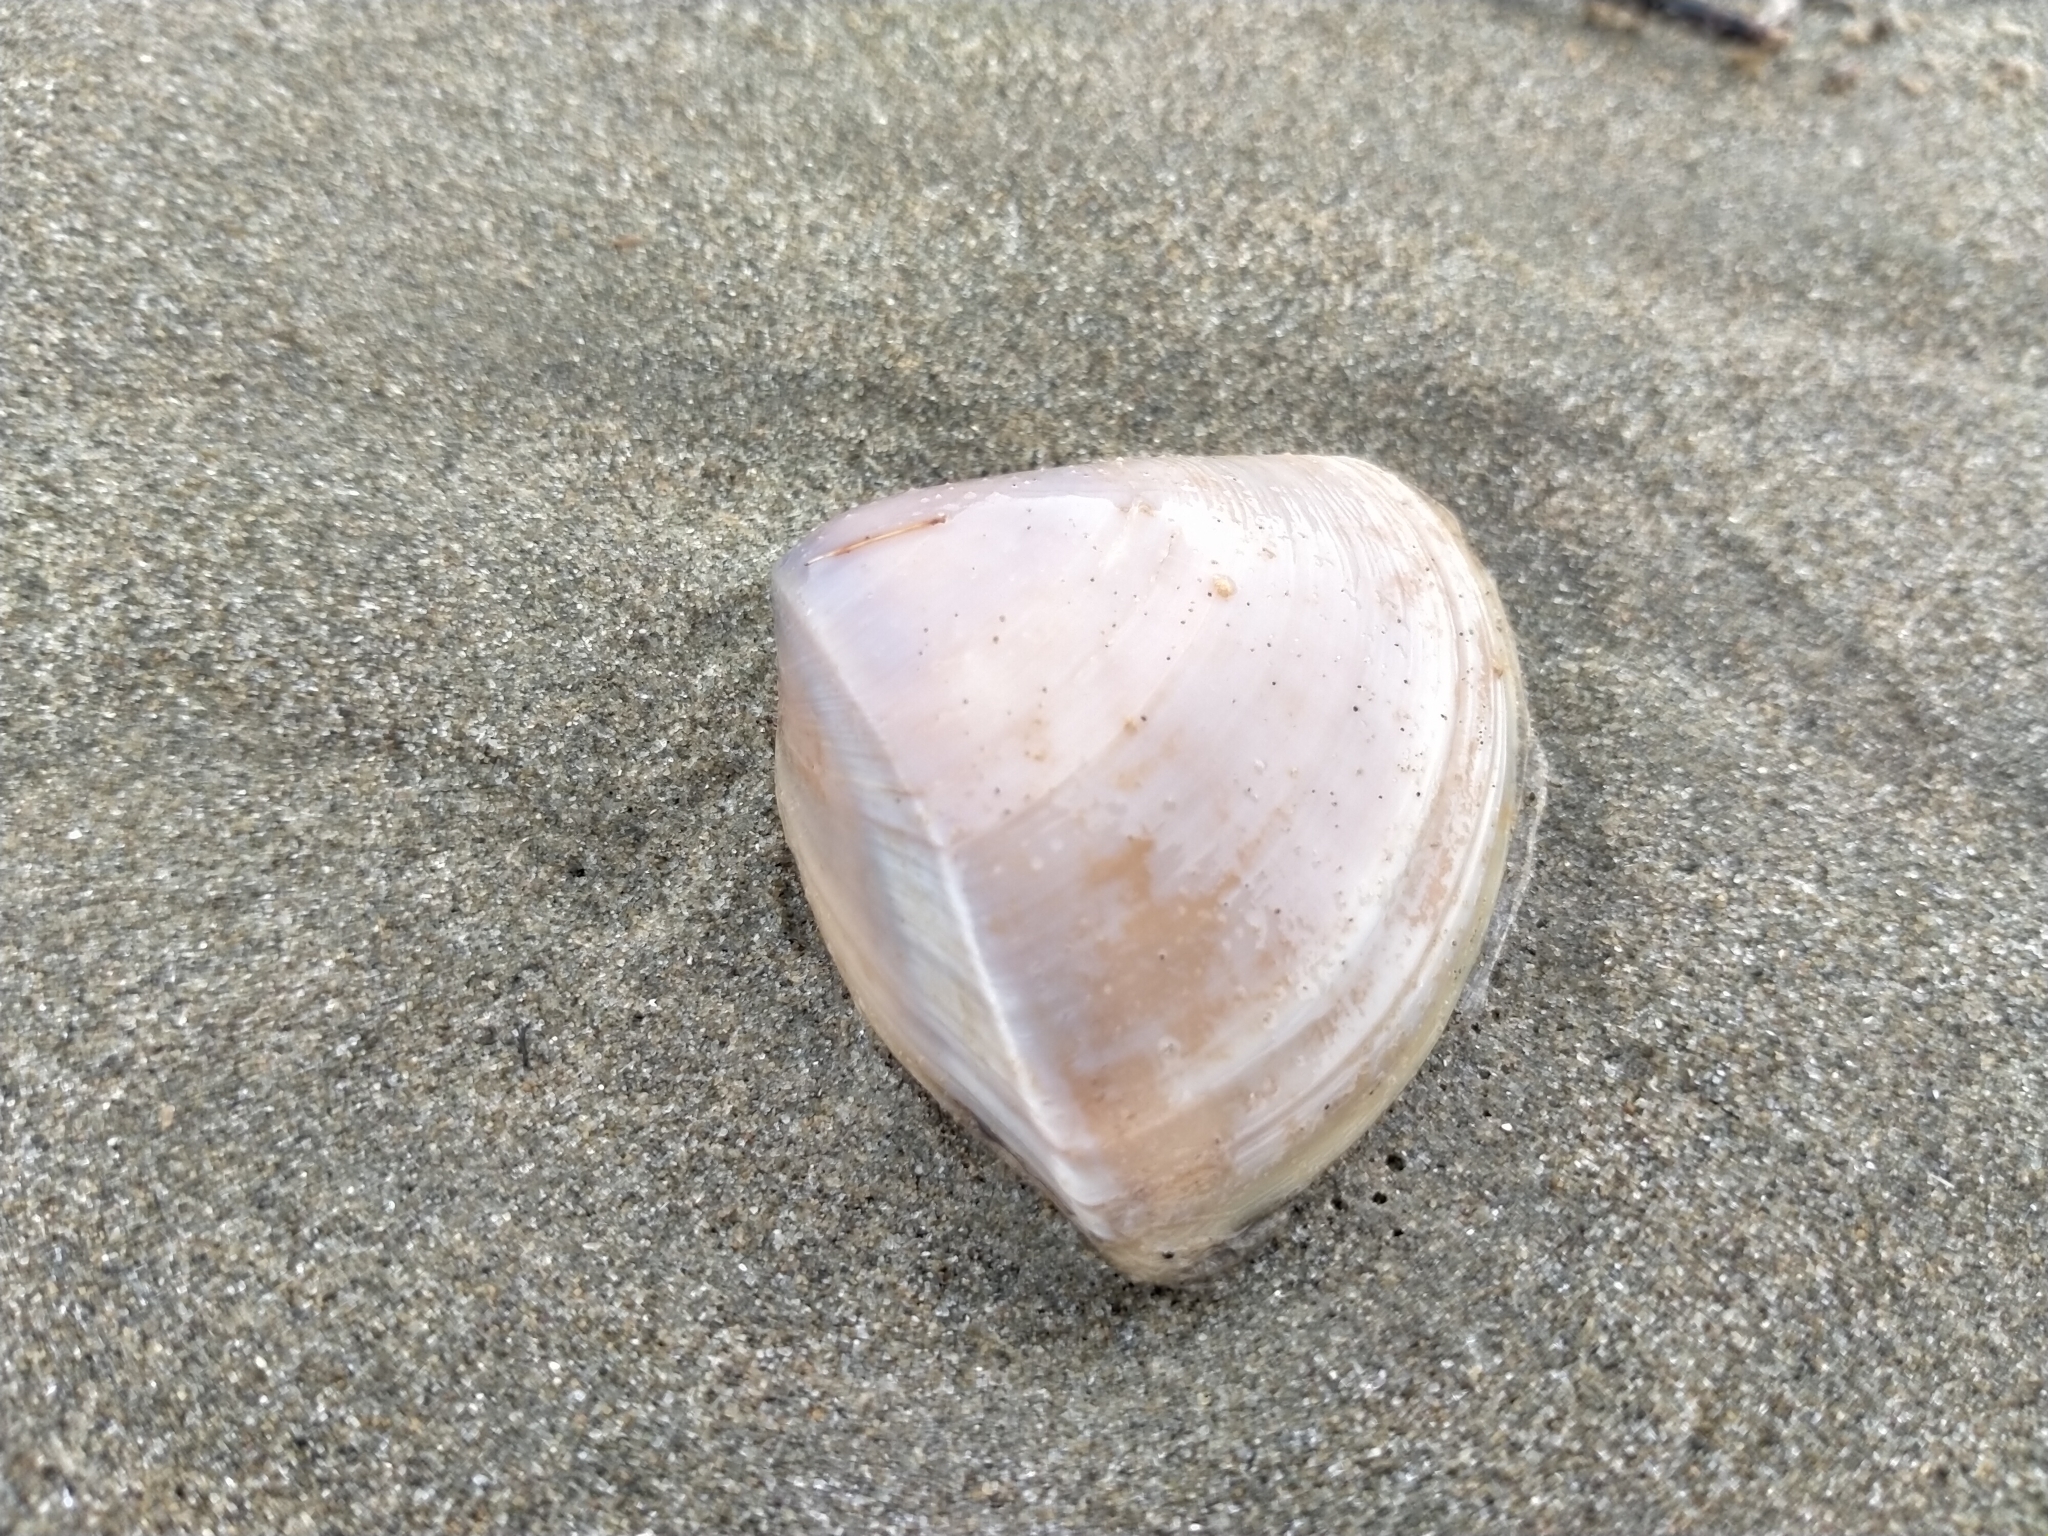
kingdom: Animalia
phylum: Mollusca
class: Bivalvia
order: Venerida
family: Mactridae
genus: Crassula
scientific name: Crassula aequilatera
